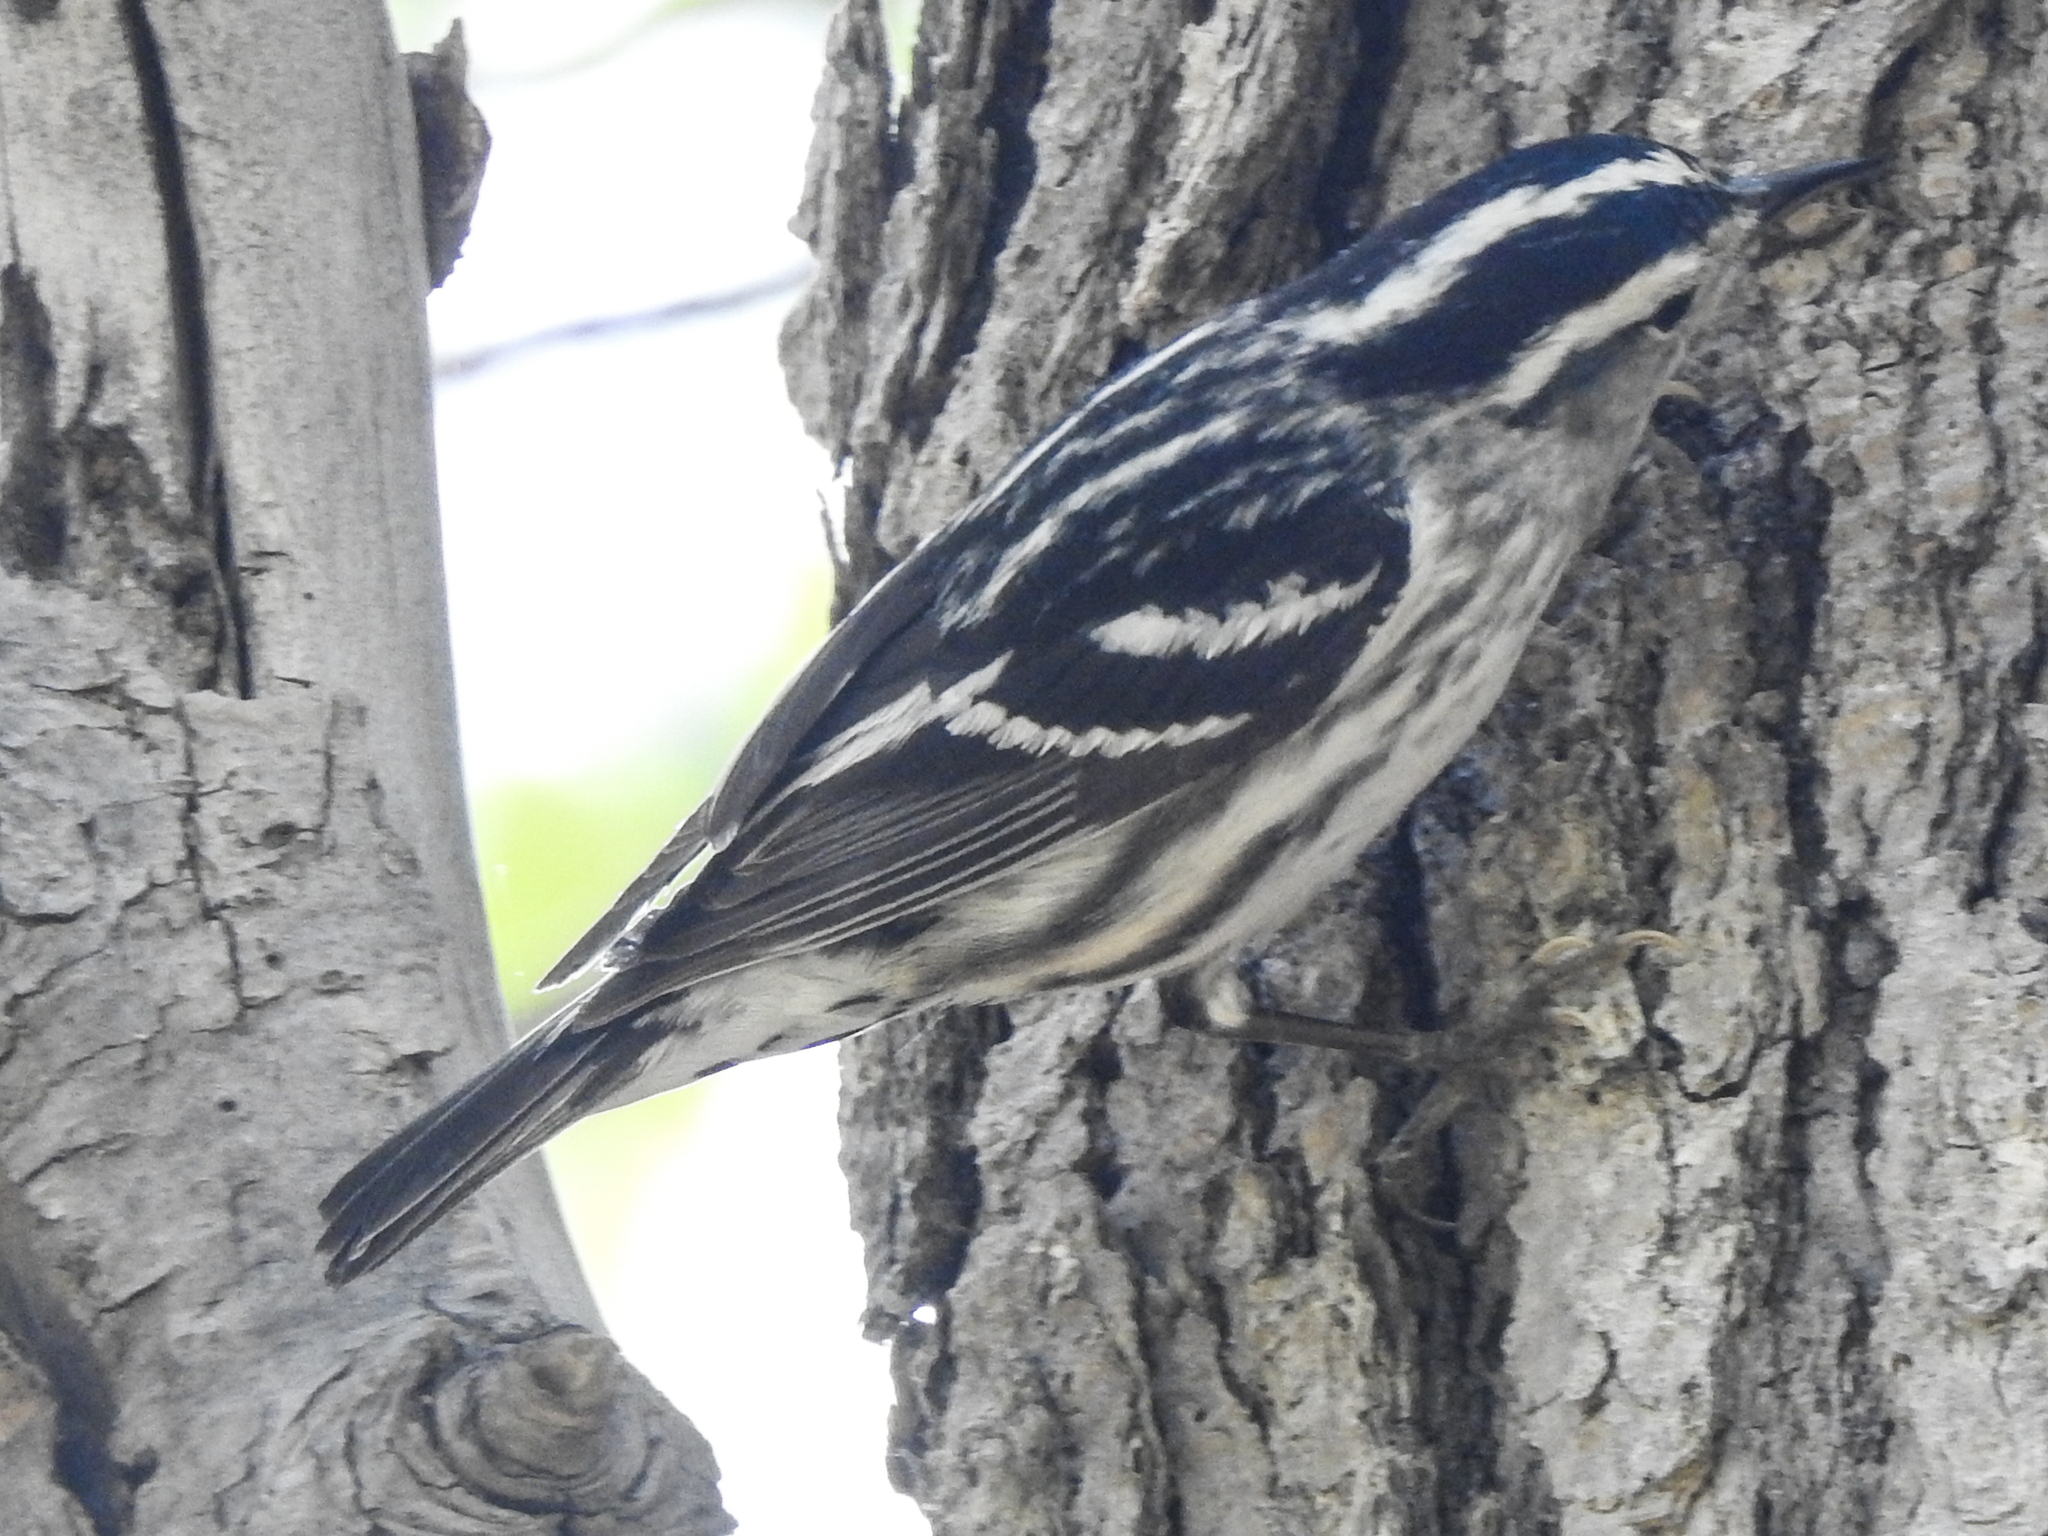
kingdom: Animalia
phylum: Chordata
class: Aves
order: Passeriformes
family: Parulidae
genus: Mniotilta
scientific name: Mniotilta varia
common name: Black-and-white warbler
